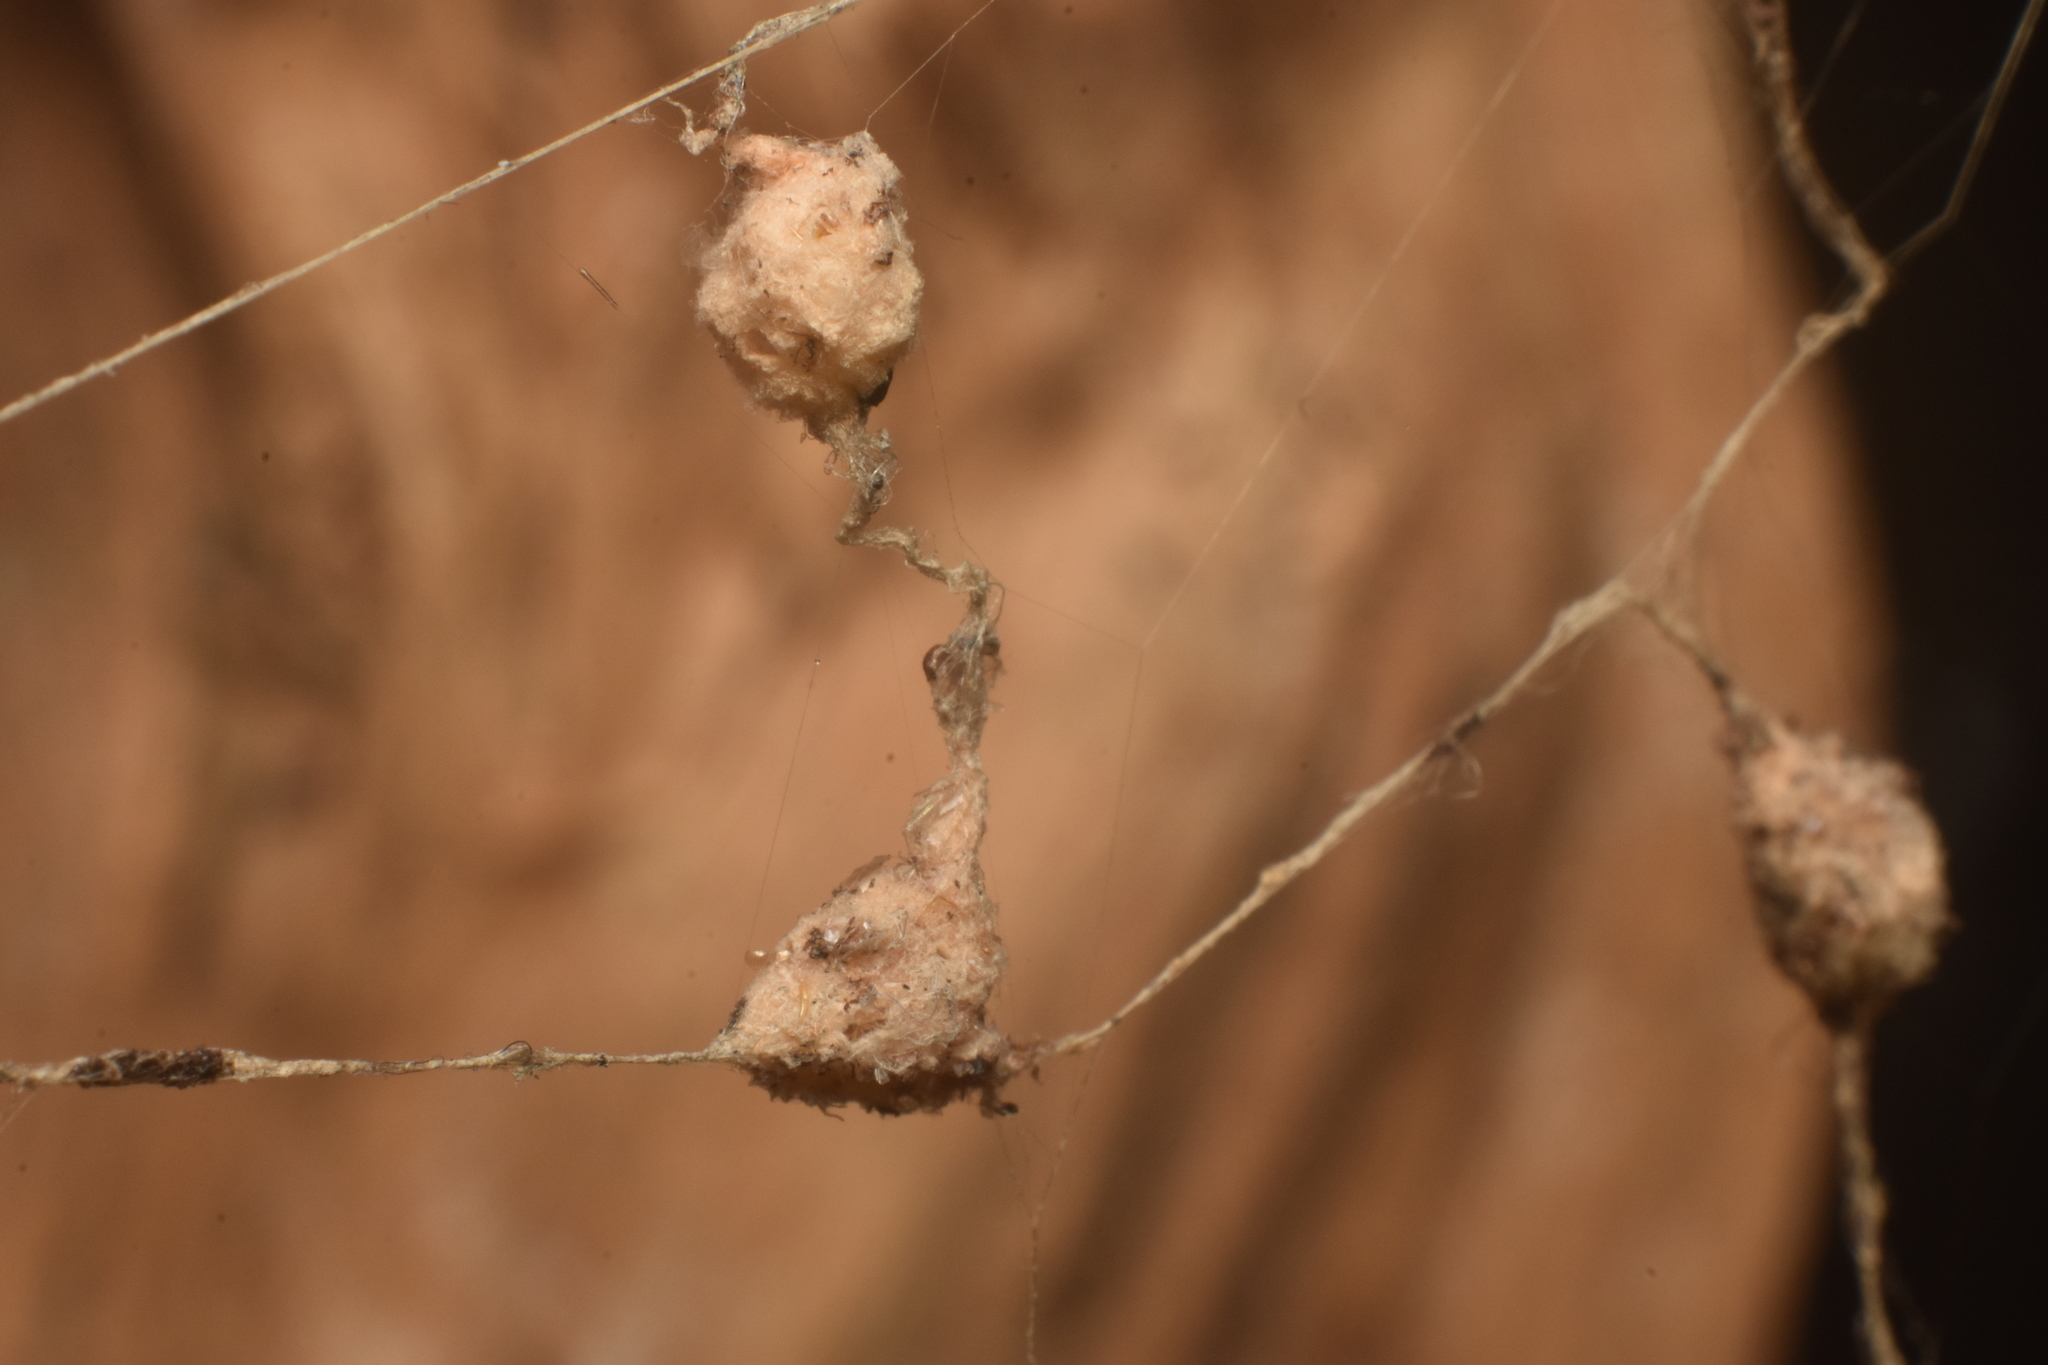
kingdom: Animalia
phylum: Arthropoda
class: Arachnida
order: Araneae
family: Araneidae
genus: Cyclosa
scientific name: Cyclosa triquetra
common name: Orb weavers
